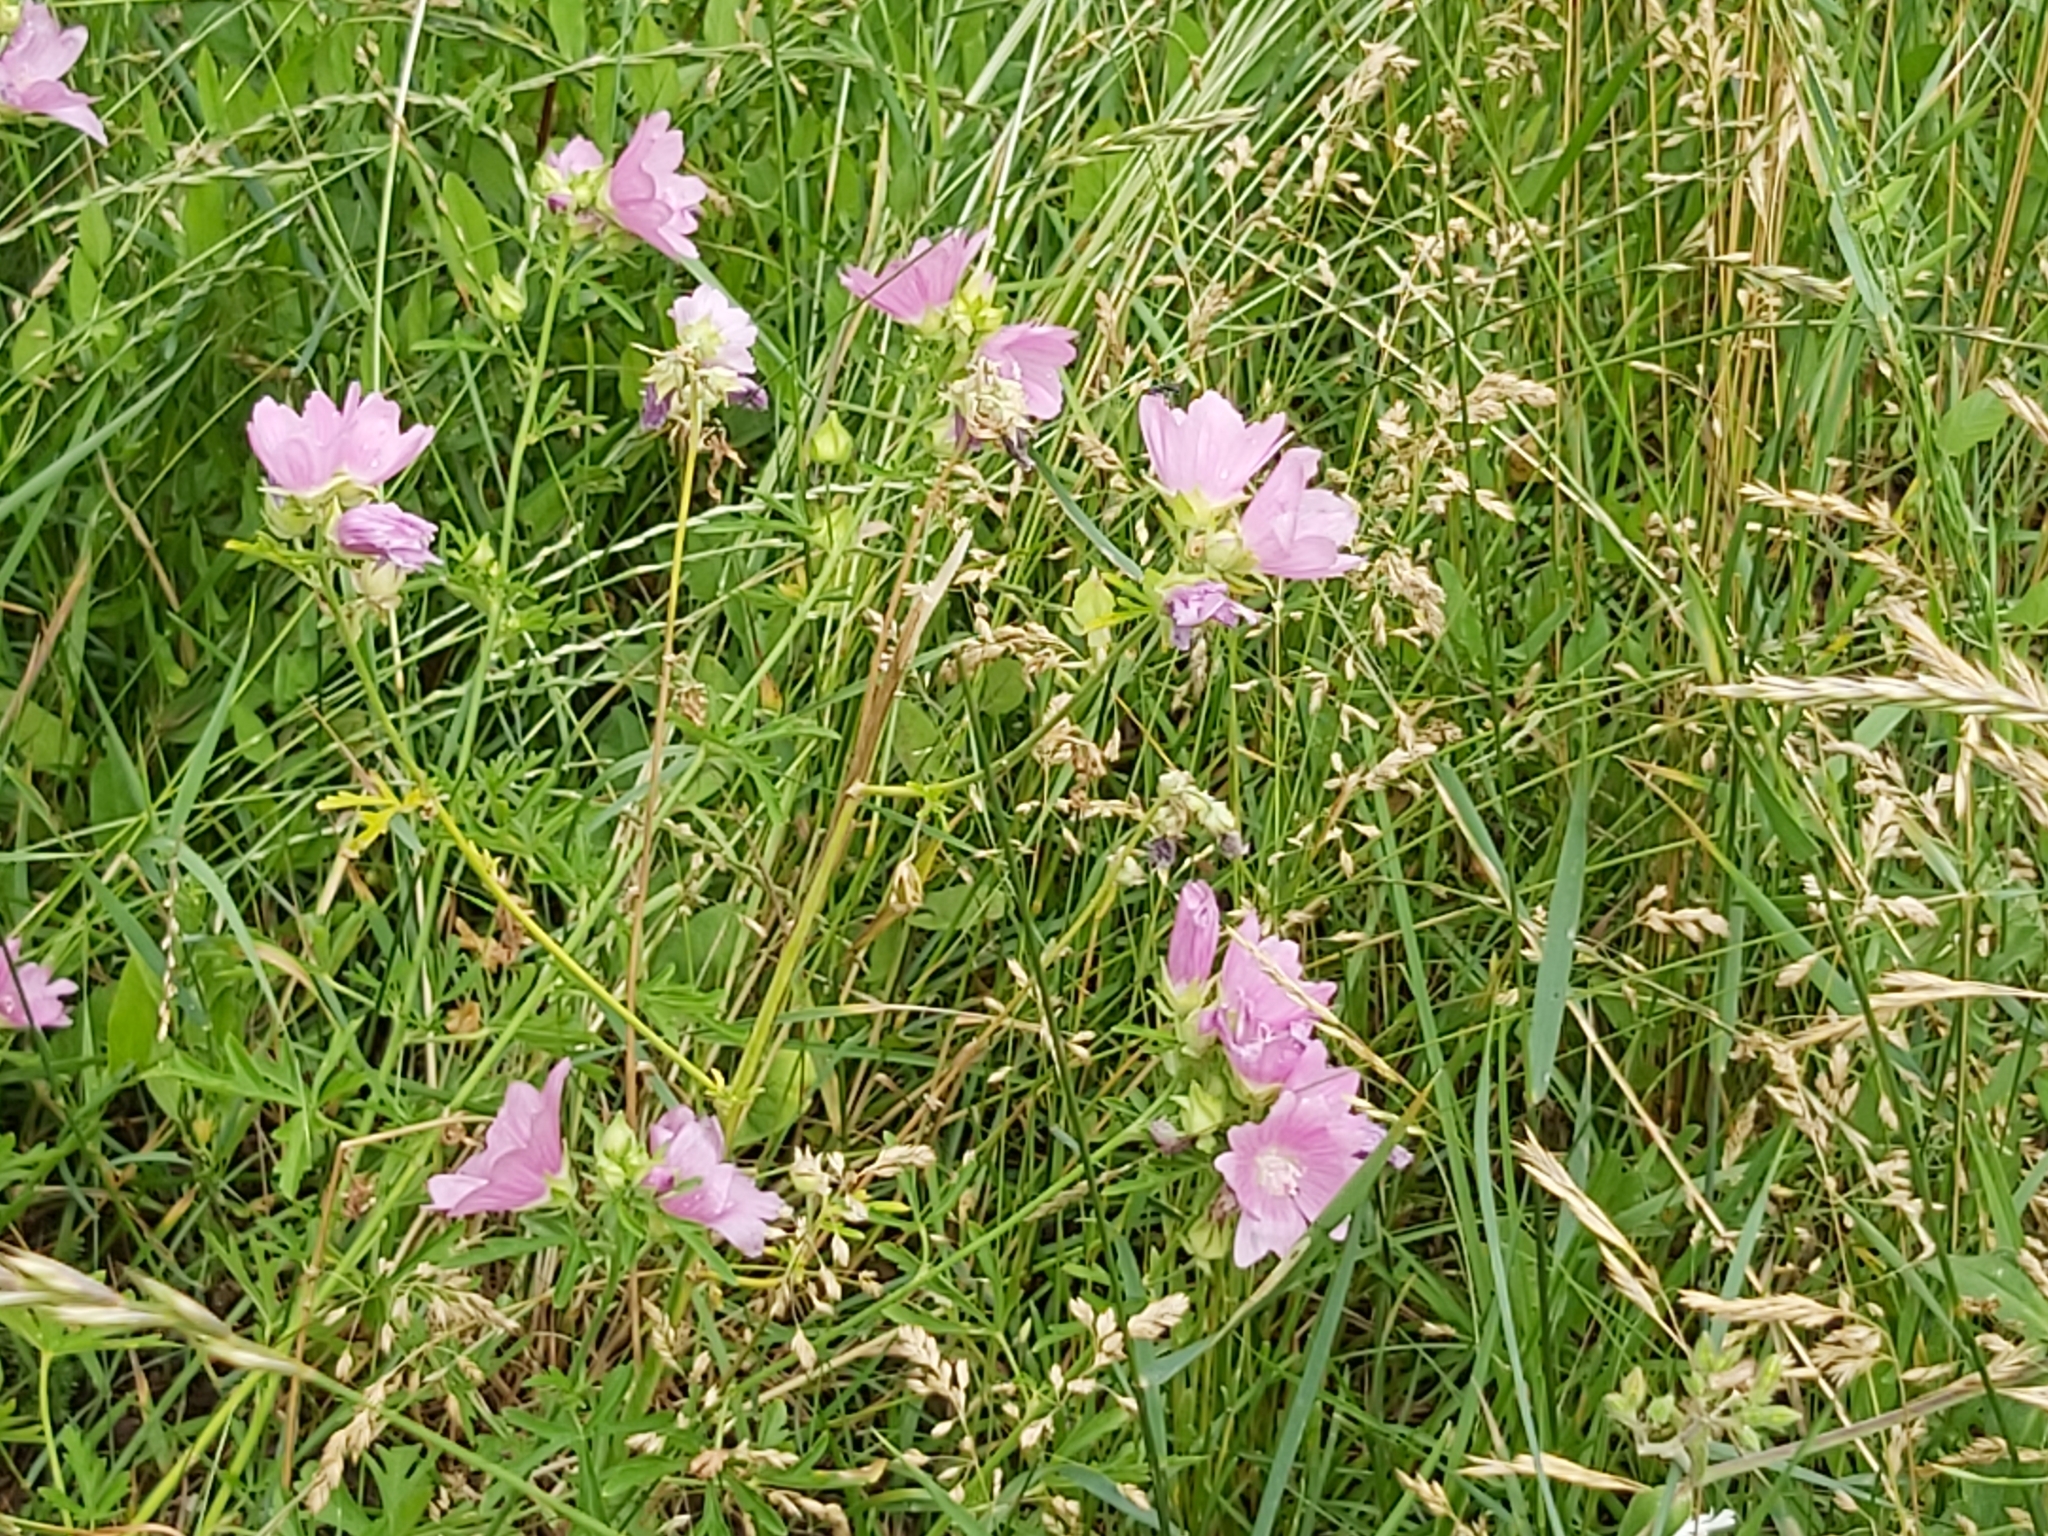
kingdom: Plantae
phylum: Tracheophyta
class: Magnoliopsida
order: Malvales
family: Malvaceae
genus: Malva
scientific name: Malva alcea
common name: Greater musk-mallow
